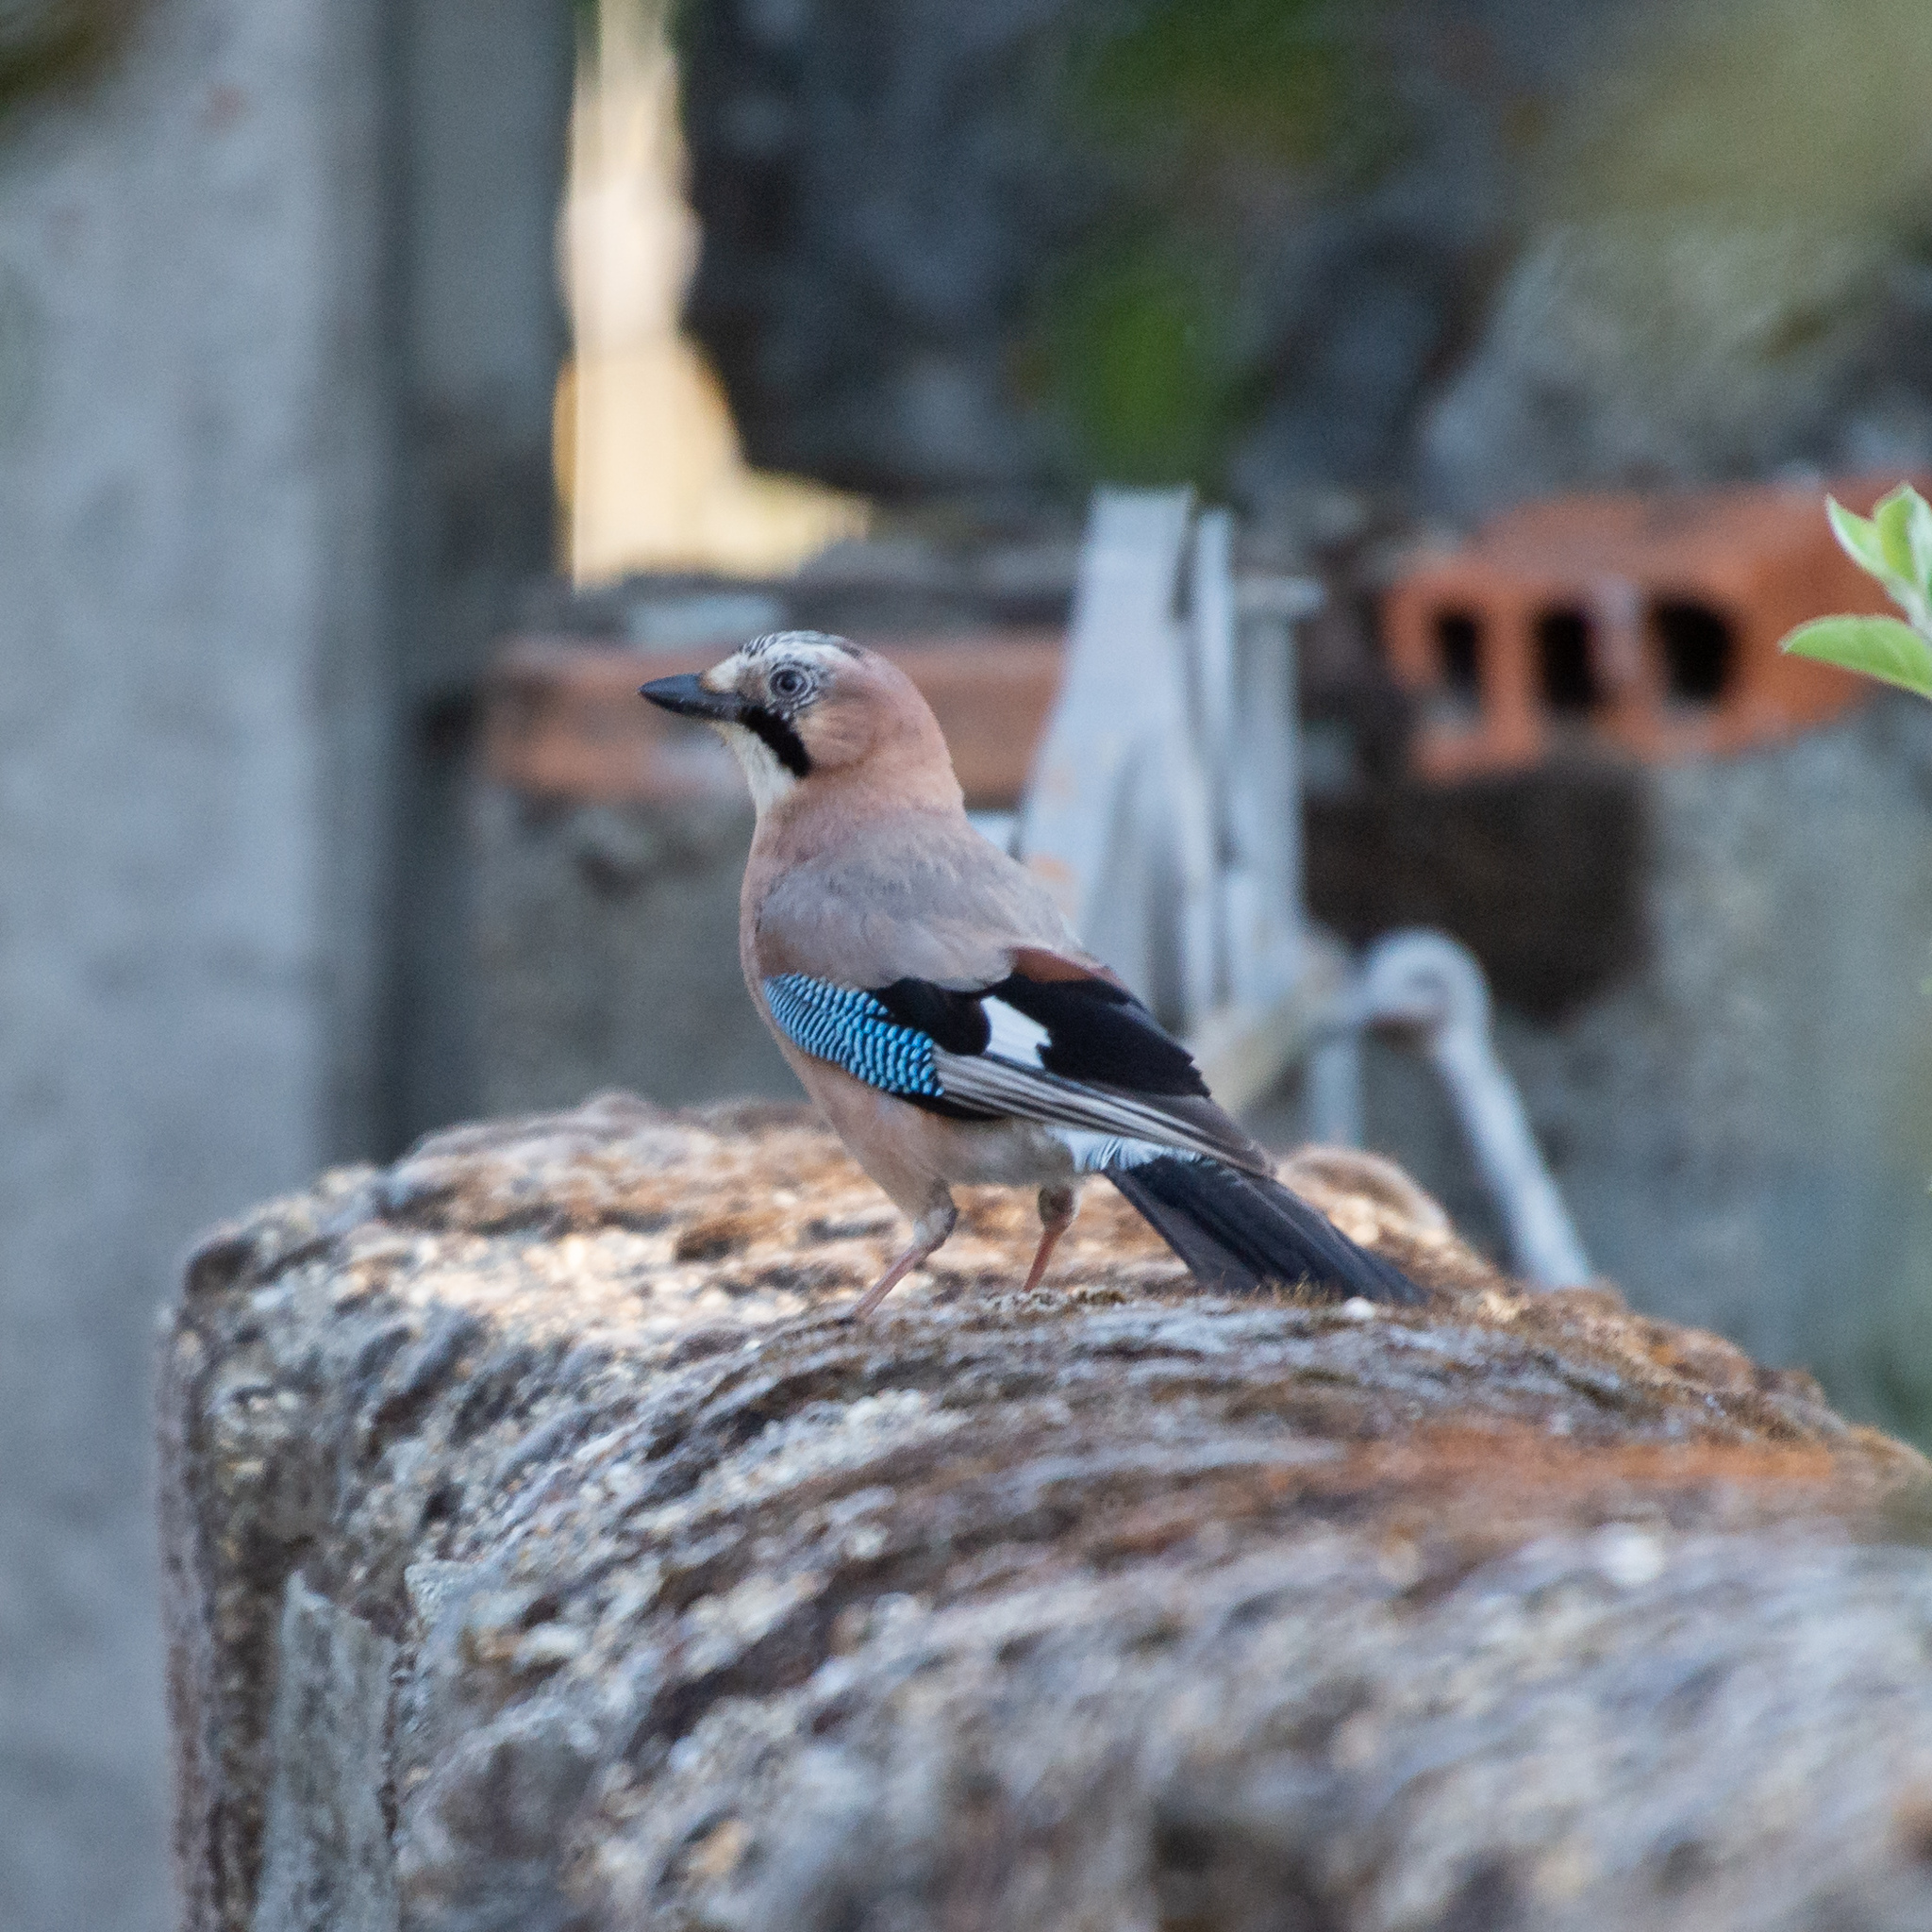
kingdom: Animalia
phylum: Chordata
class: Aves
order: Passeriformes
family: Corvidae
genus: Garrulus
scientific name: Garrulus glandarius
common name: Eurasian jay
